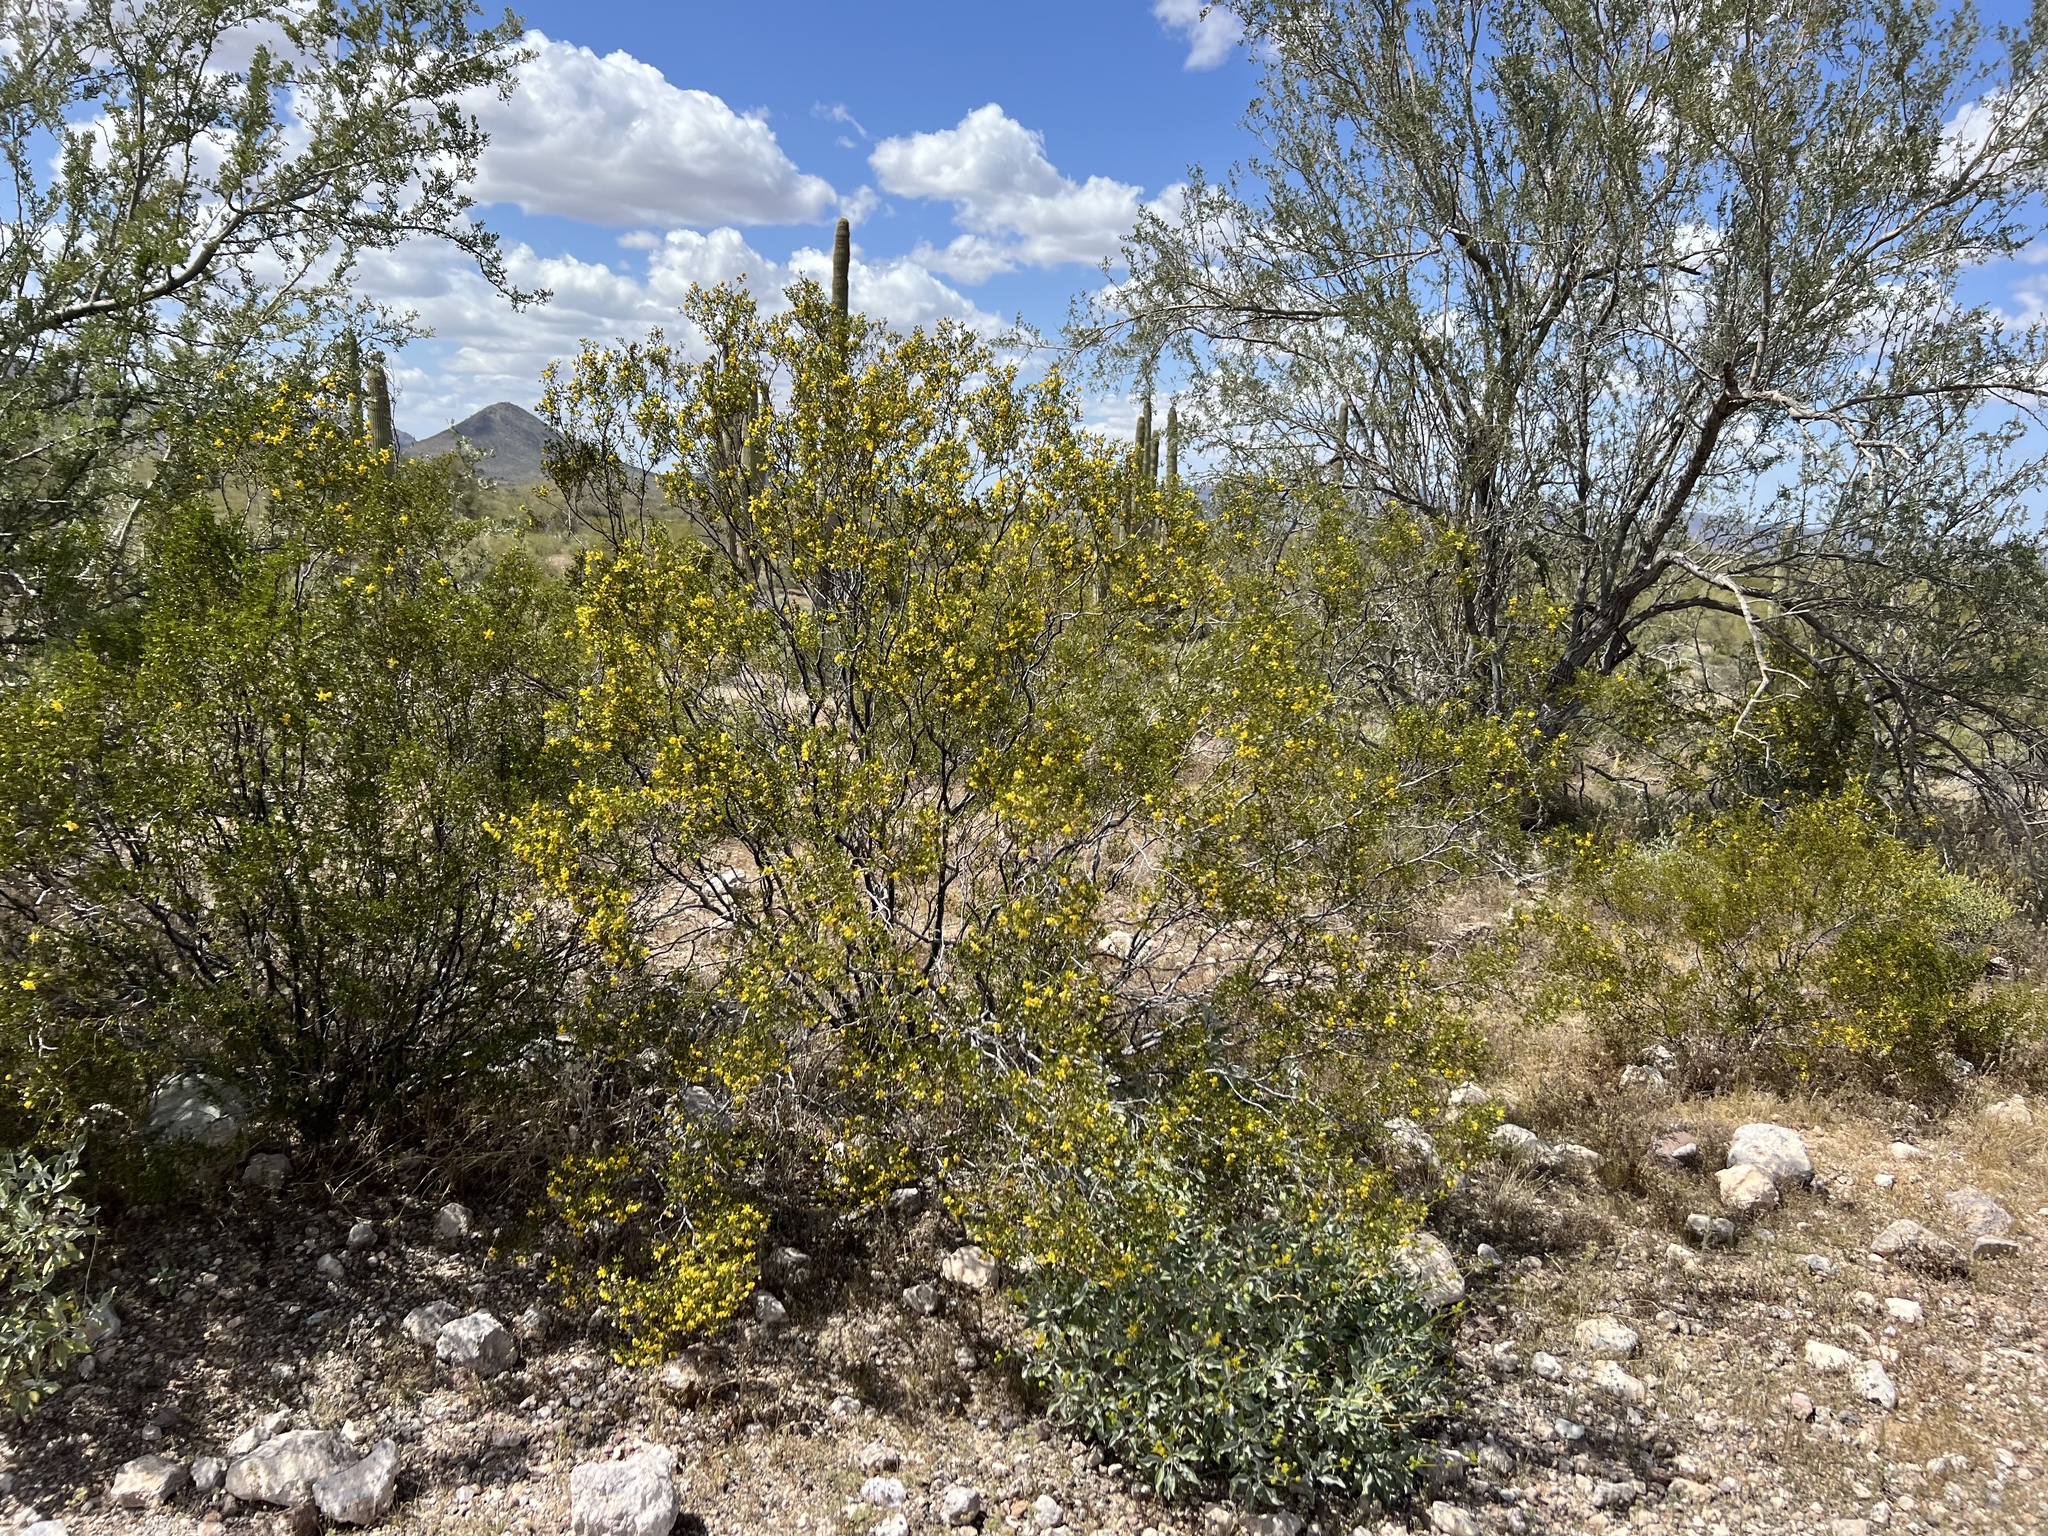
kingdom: Plantae
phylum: Tracheophyta
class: Magnoliopsida
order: Zygophyllales
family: Zygophyllaceae
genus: Larrea
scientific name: Larrea tridentata
